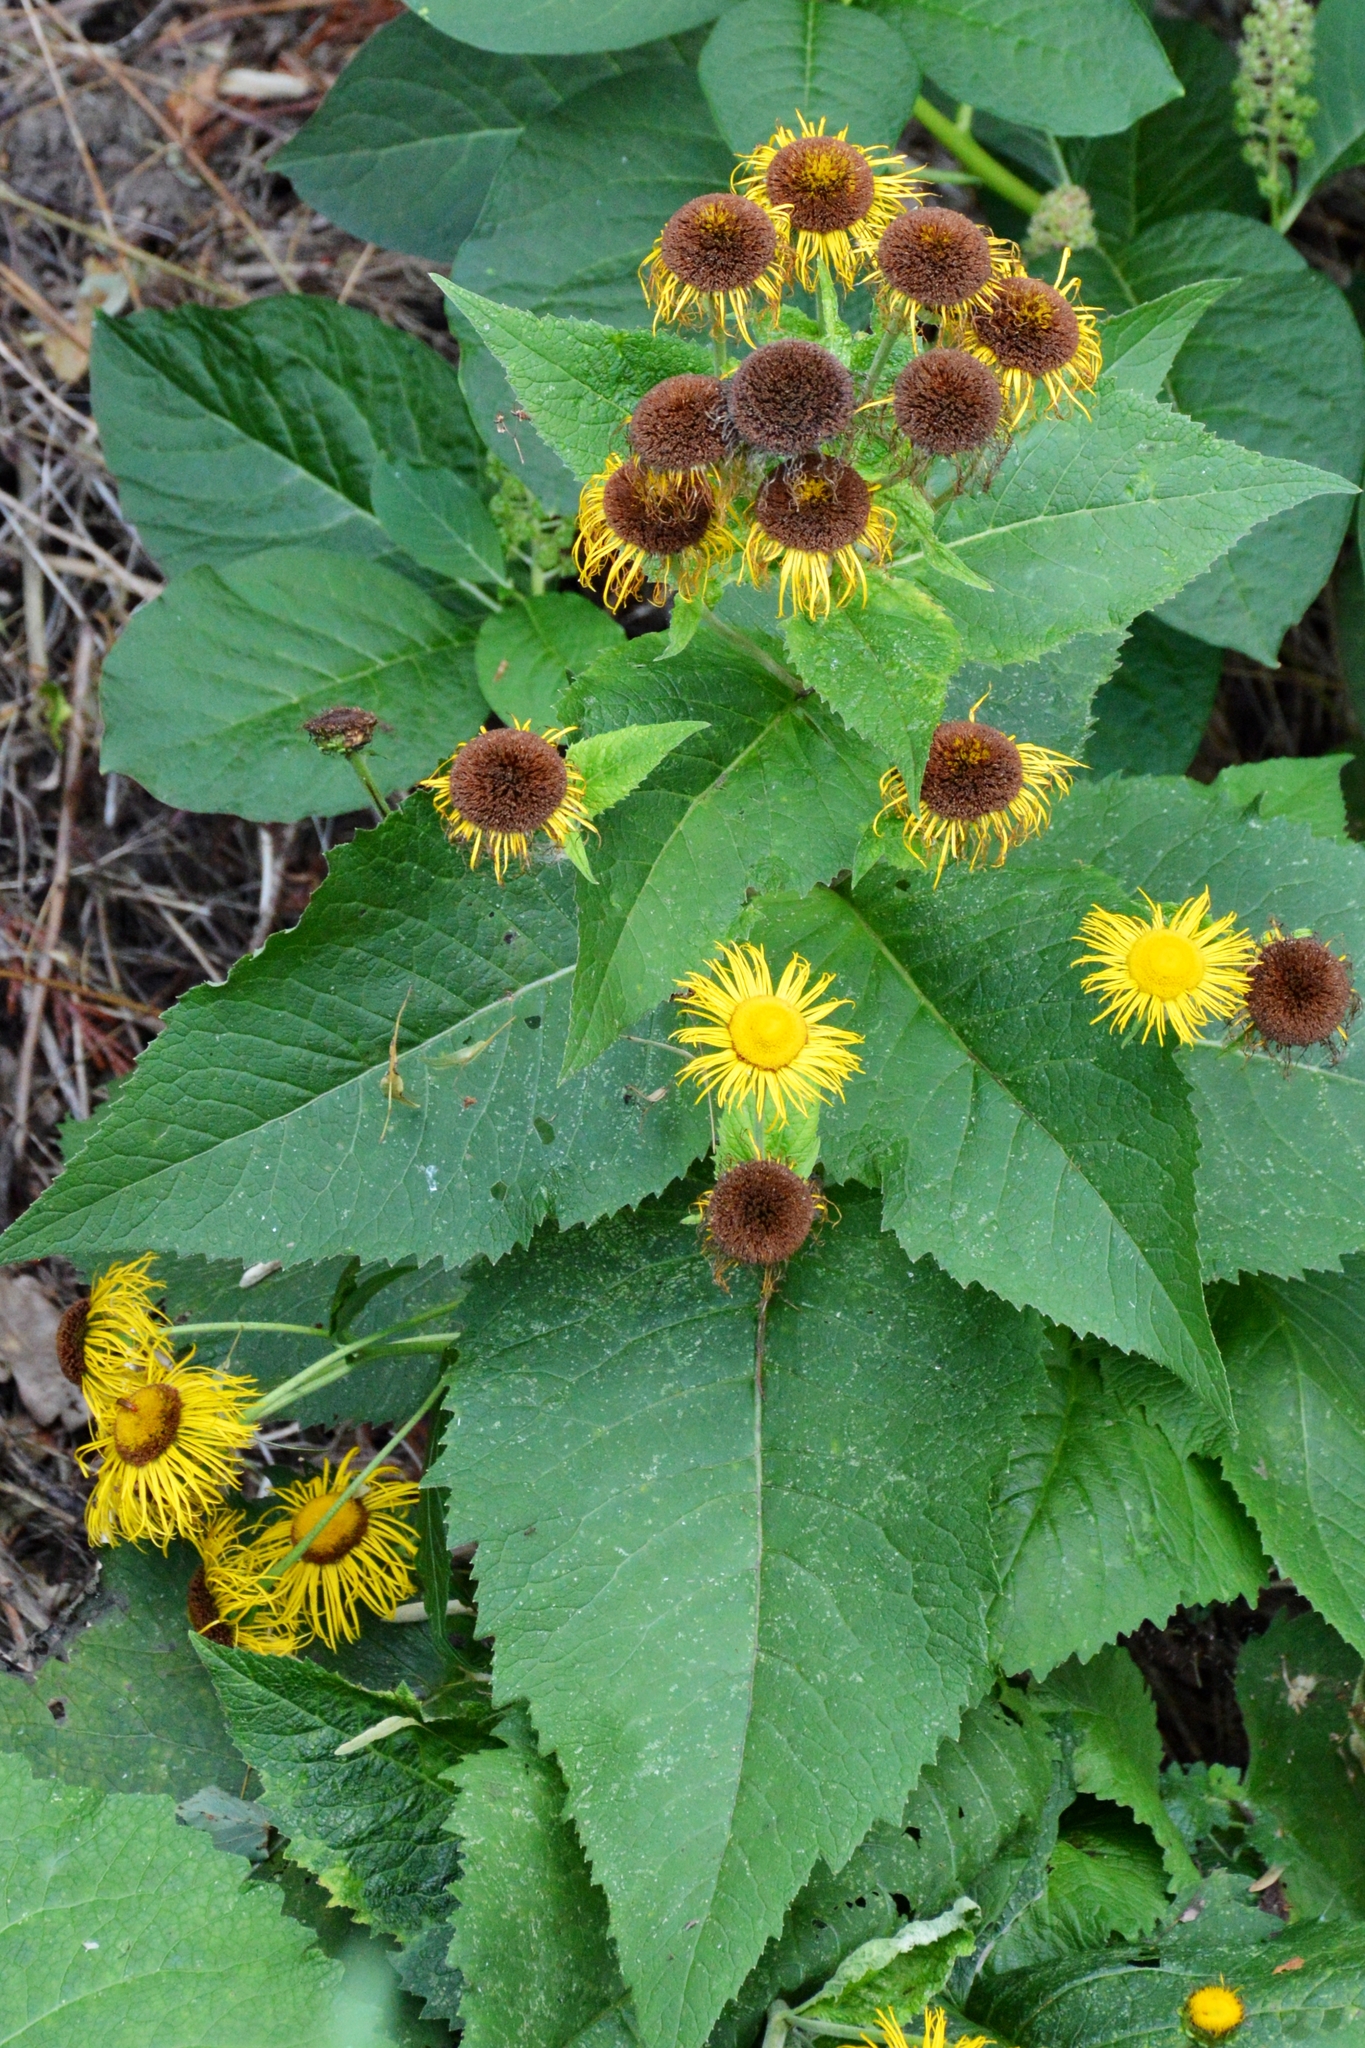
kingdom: Plantae
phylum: Tracheophyta
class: Magnoliopsida
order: Asterales
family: Asteraceae
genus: Telekia
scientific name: Telekia speciosa
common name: Yellow oxeye
